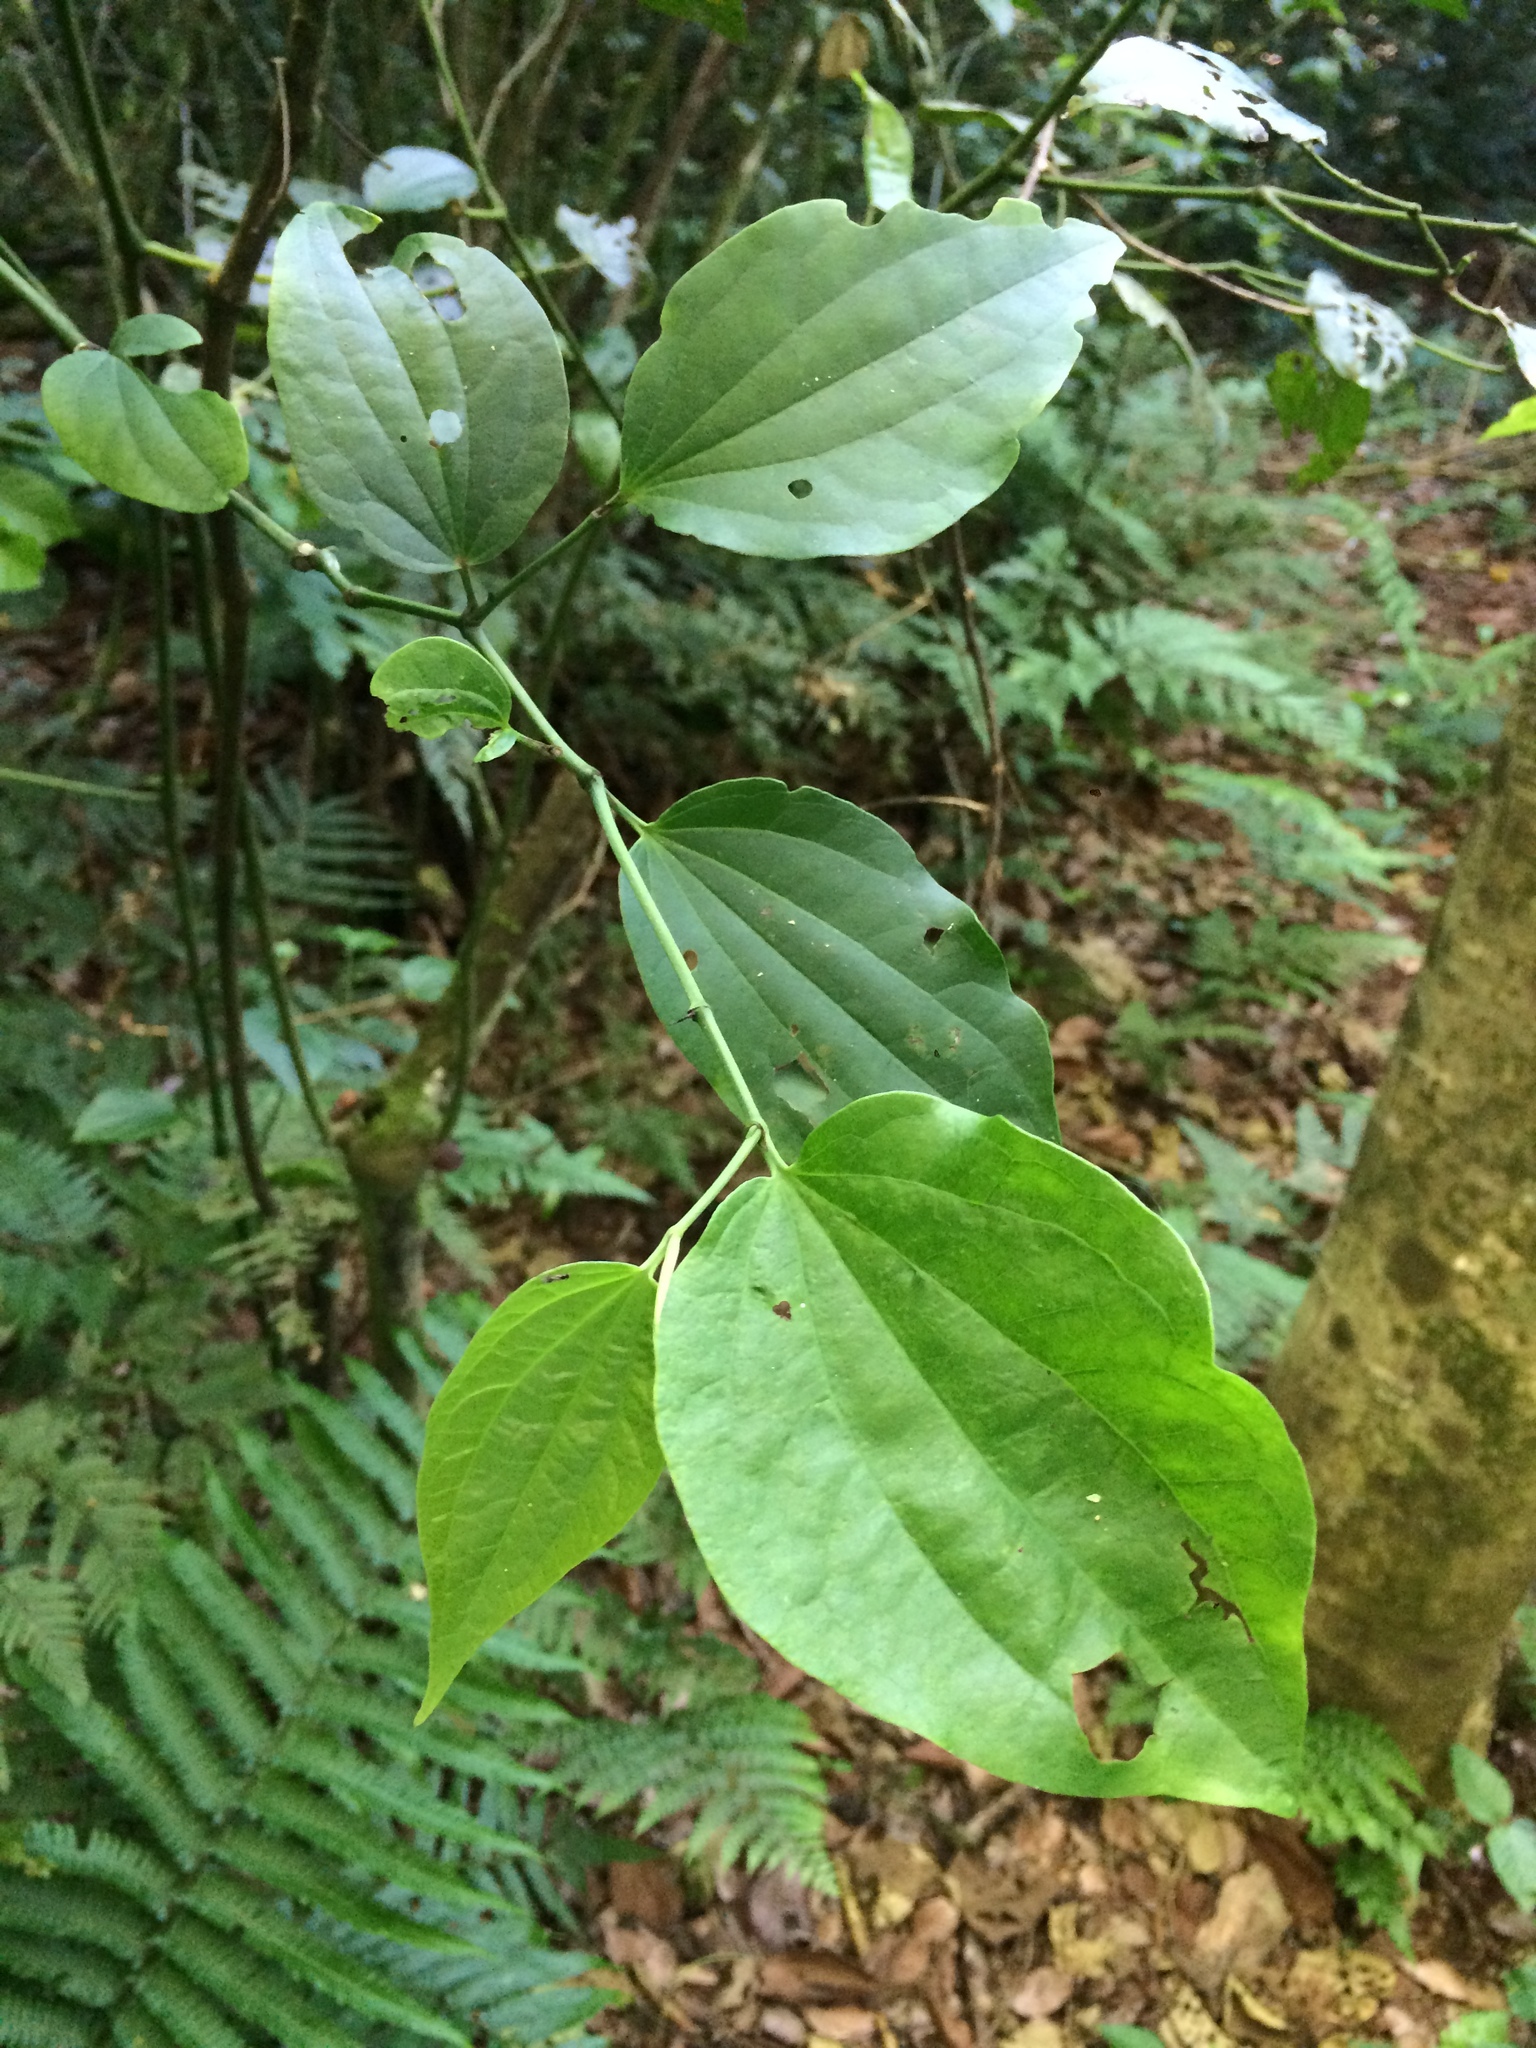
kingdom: Plantae
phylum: Tracheophyta
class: Magnoliopsida
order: Piperales
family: Piperaceae
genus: Piper
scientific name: Piper amalago
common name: Pepper-elder
